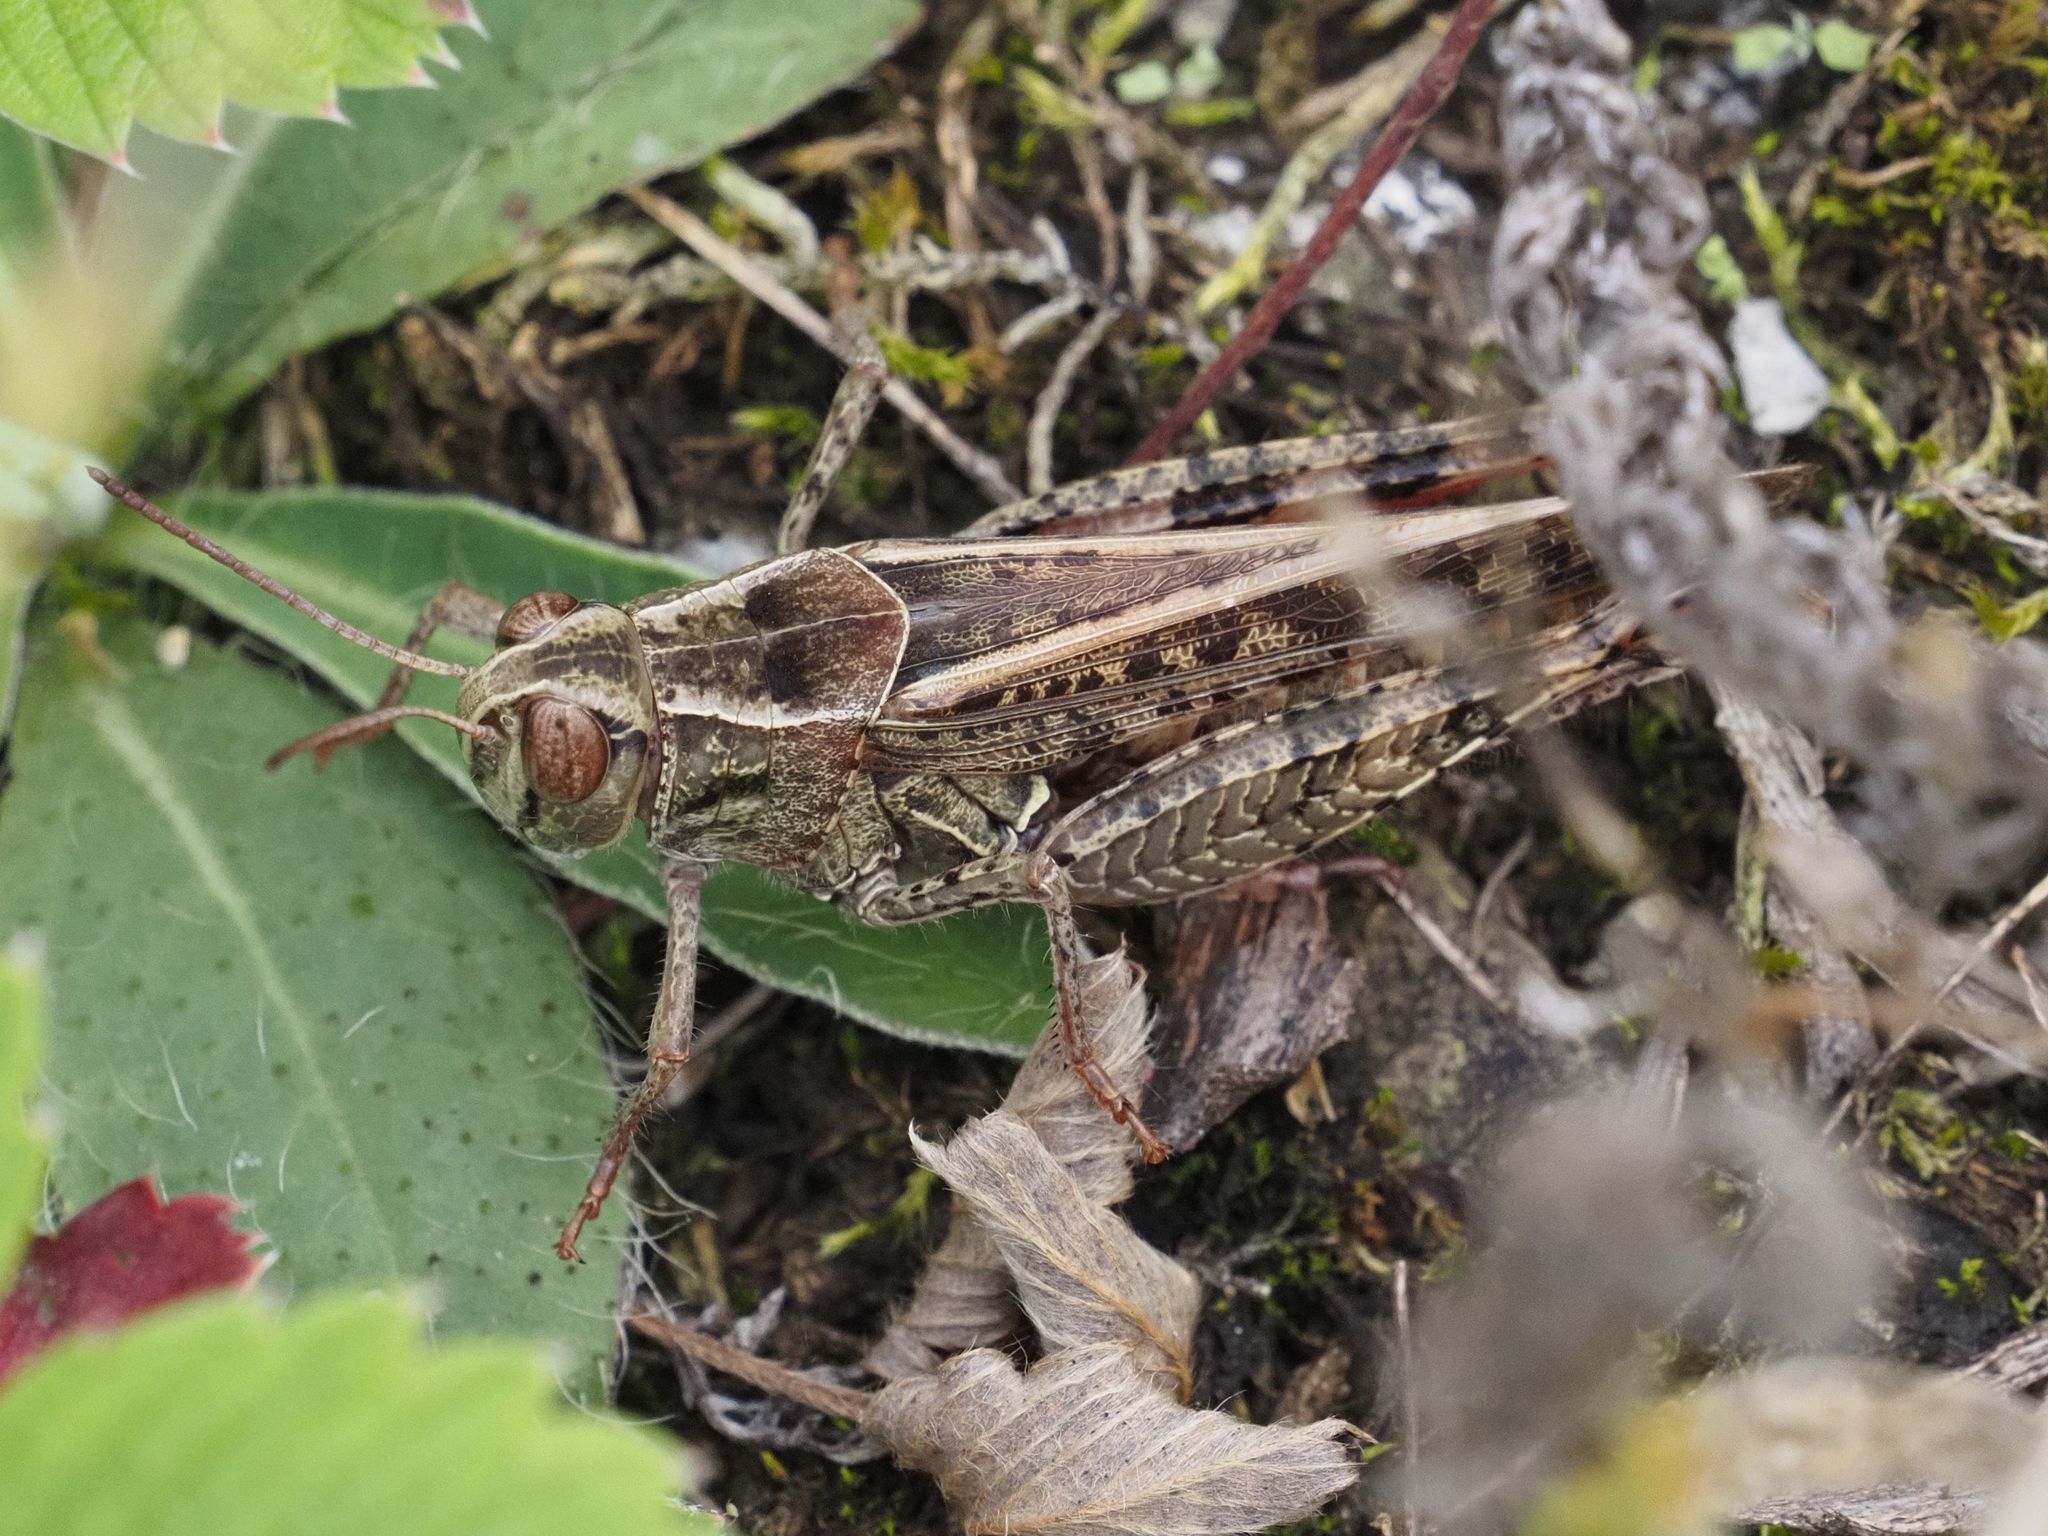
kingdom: Animalia
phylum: Arthropoda
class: Insecta
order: Orthoptera
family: Acrididae
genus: Calliptamus
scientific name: Calliptamus italicus
